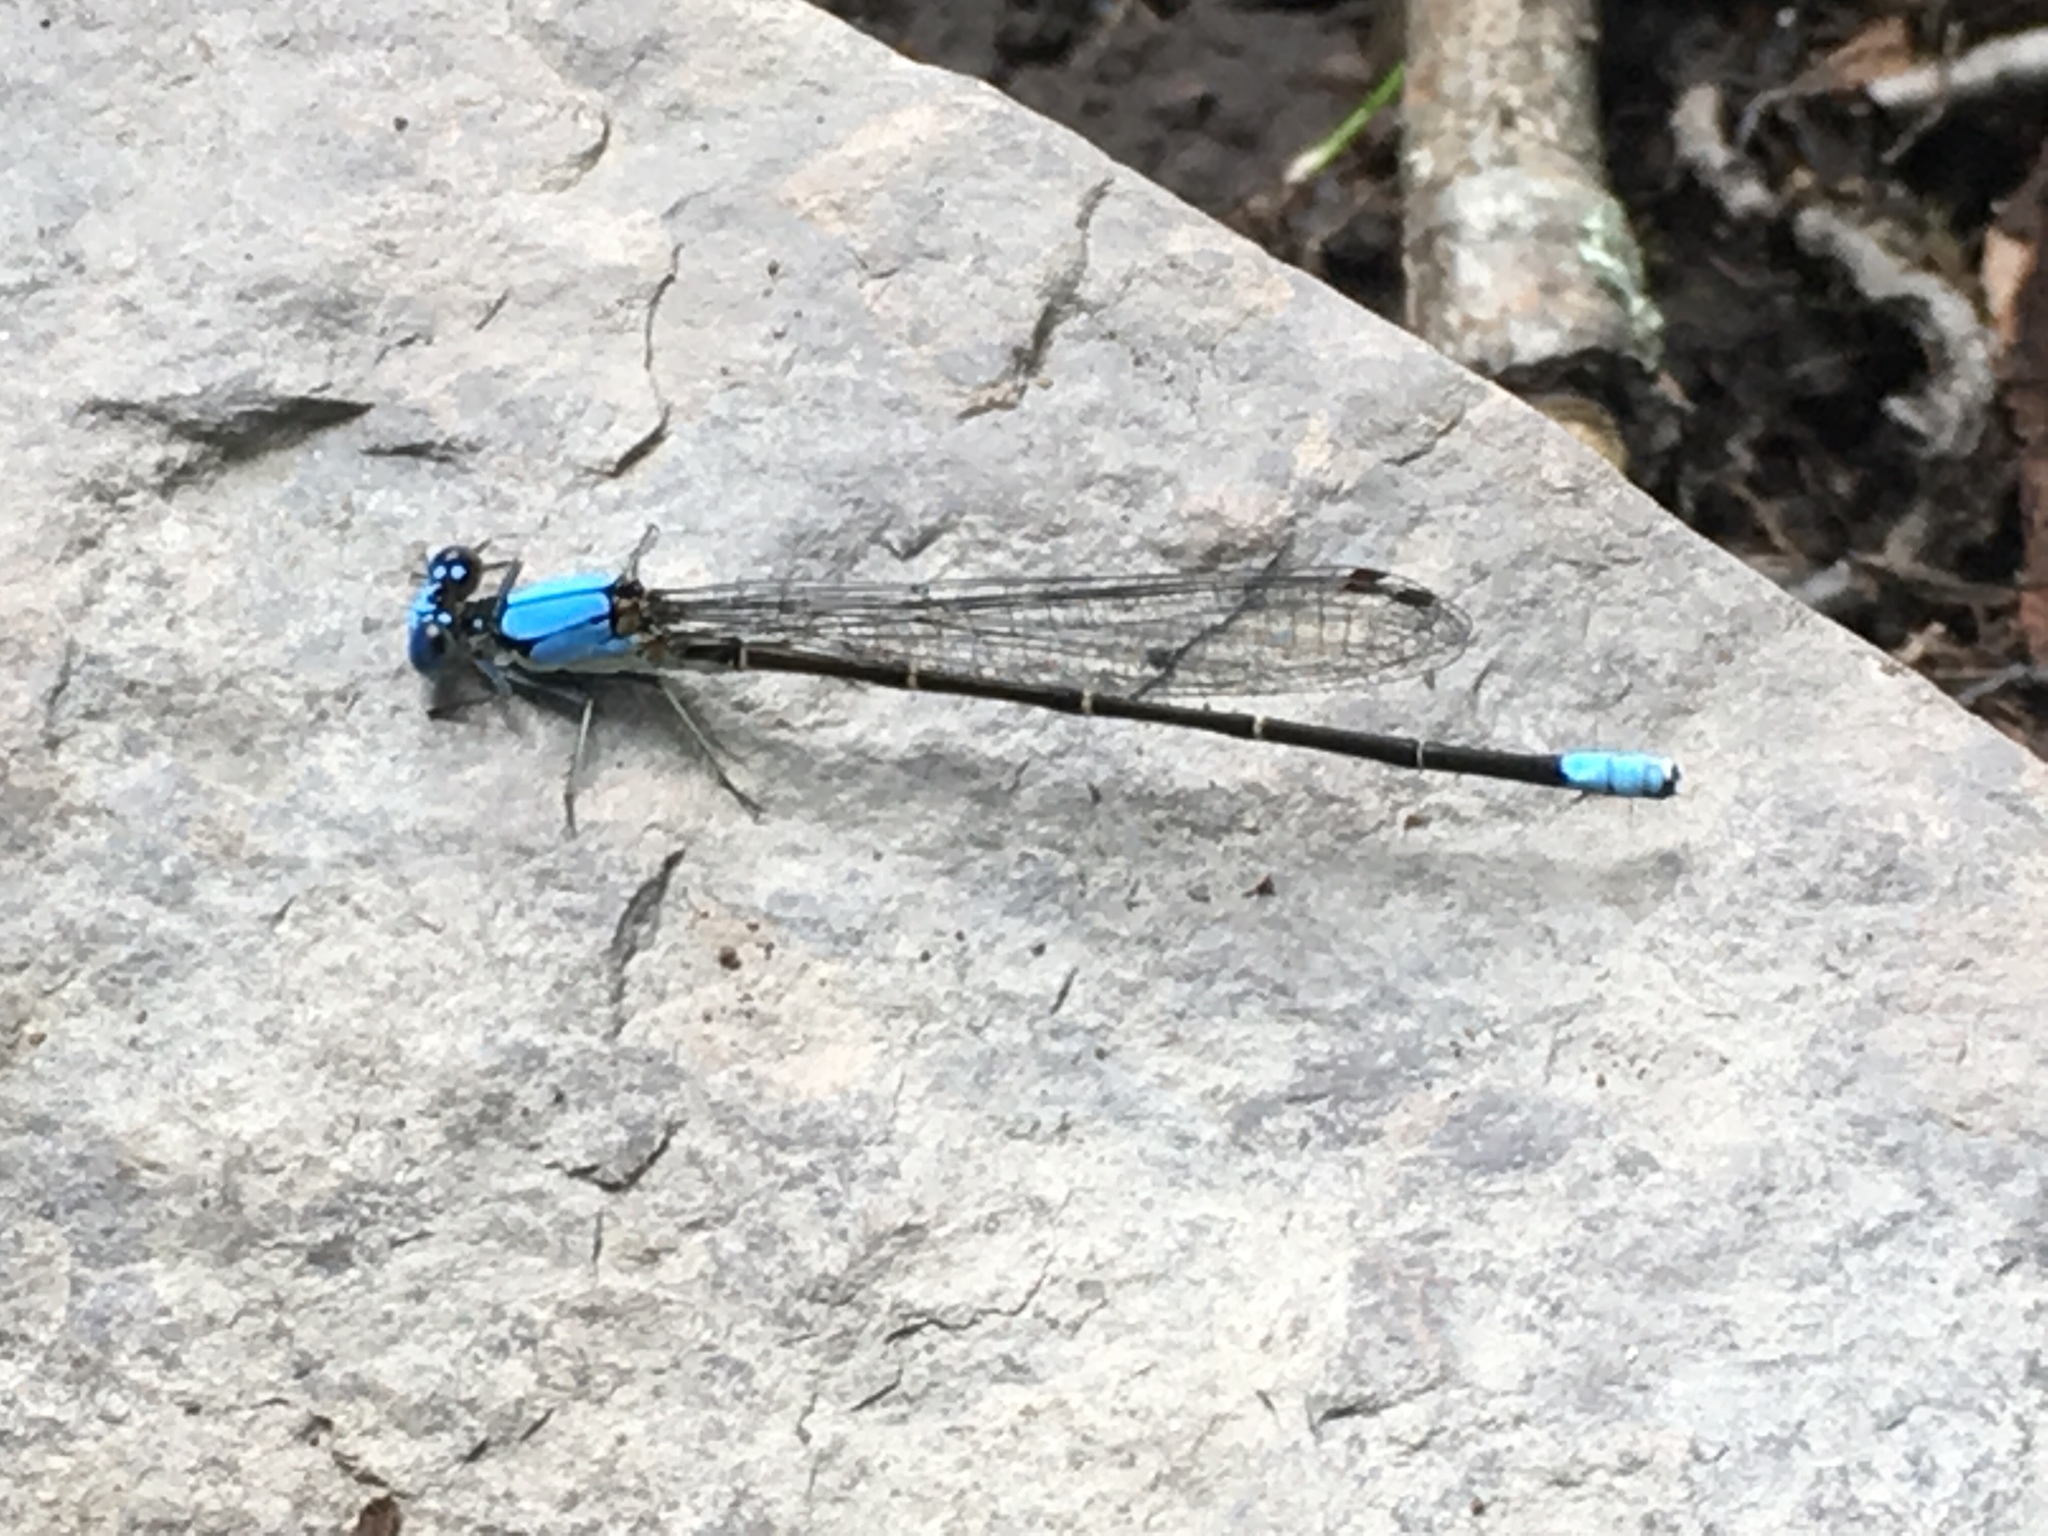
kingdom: Animalia
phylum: Arthropoda
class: Insecta
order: Odonata
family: Coenagrionidae
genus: Argia
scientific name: Argia apicalis
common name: Blue-fronted dancer
